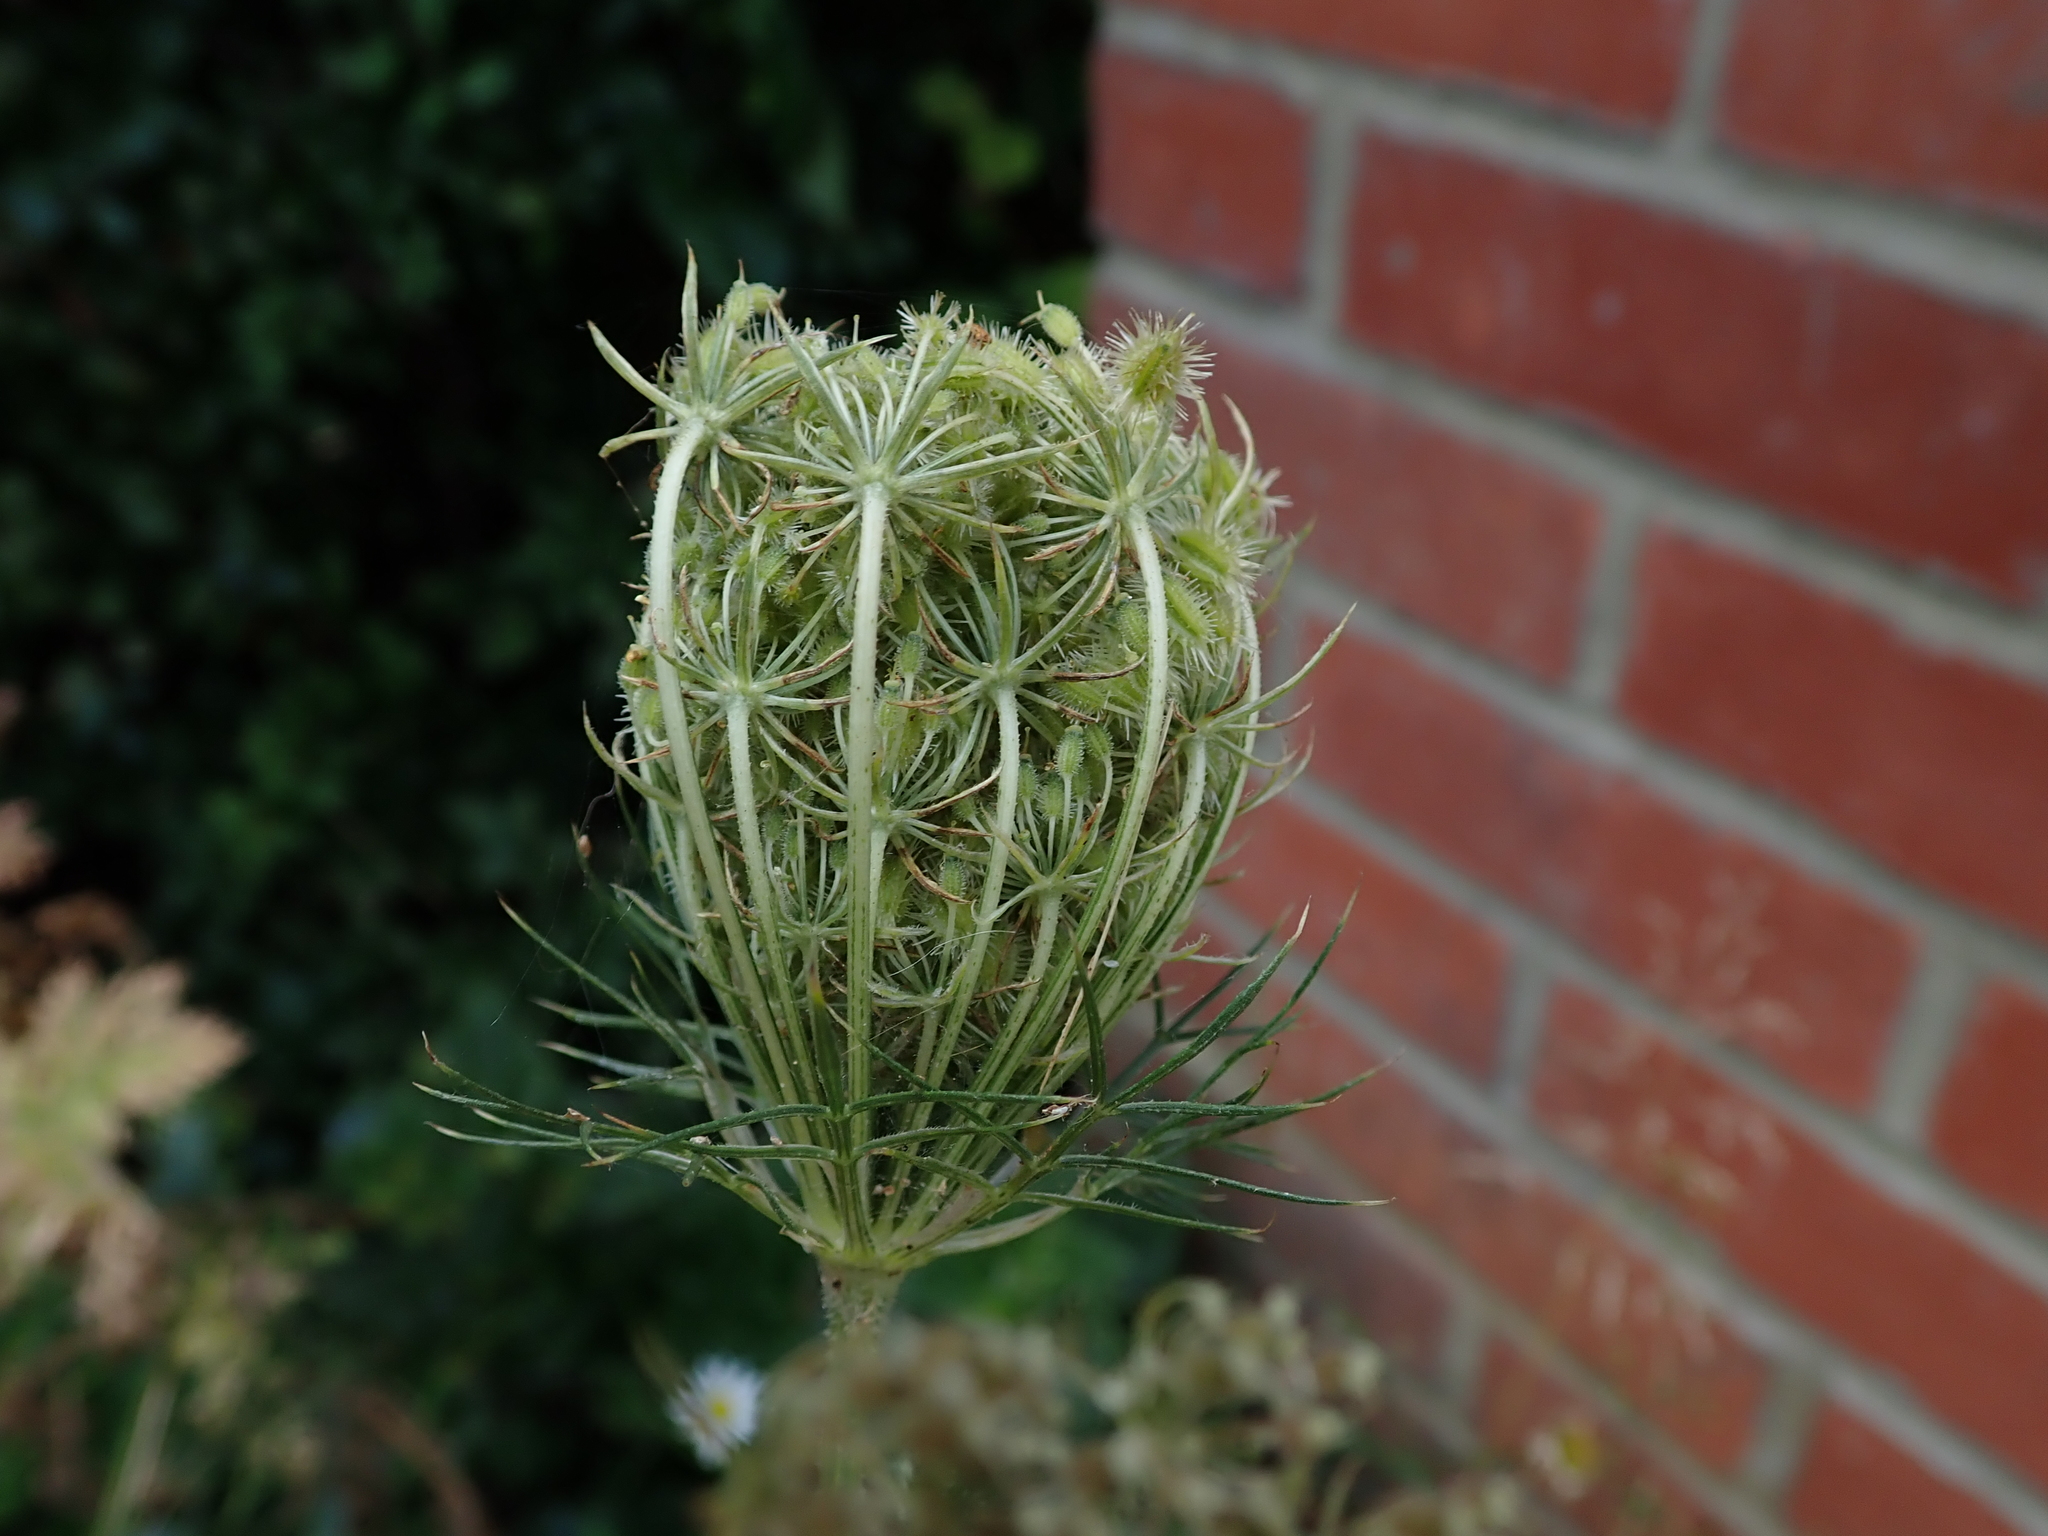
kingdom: Plantae
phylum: Tracheophyta
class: Magnoliopsida
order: Apiales
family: Apiaceae
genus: Daucus
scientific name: Daucus carota
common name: Wild carrot
